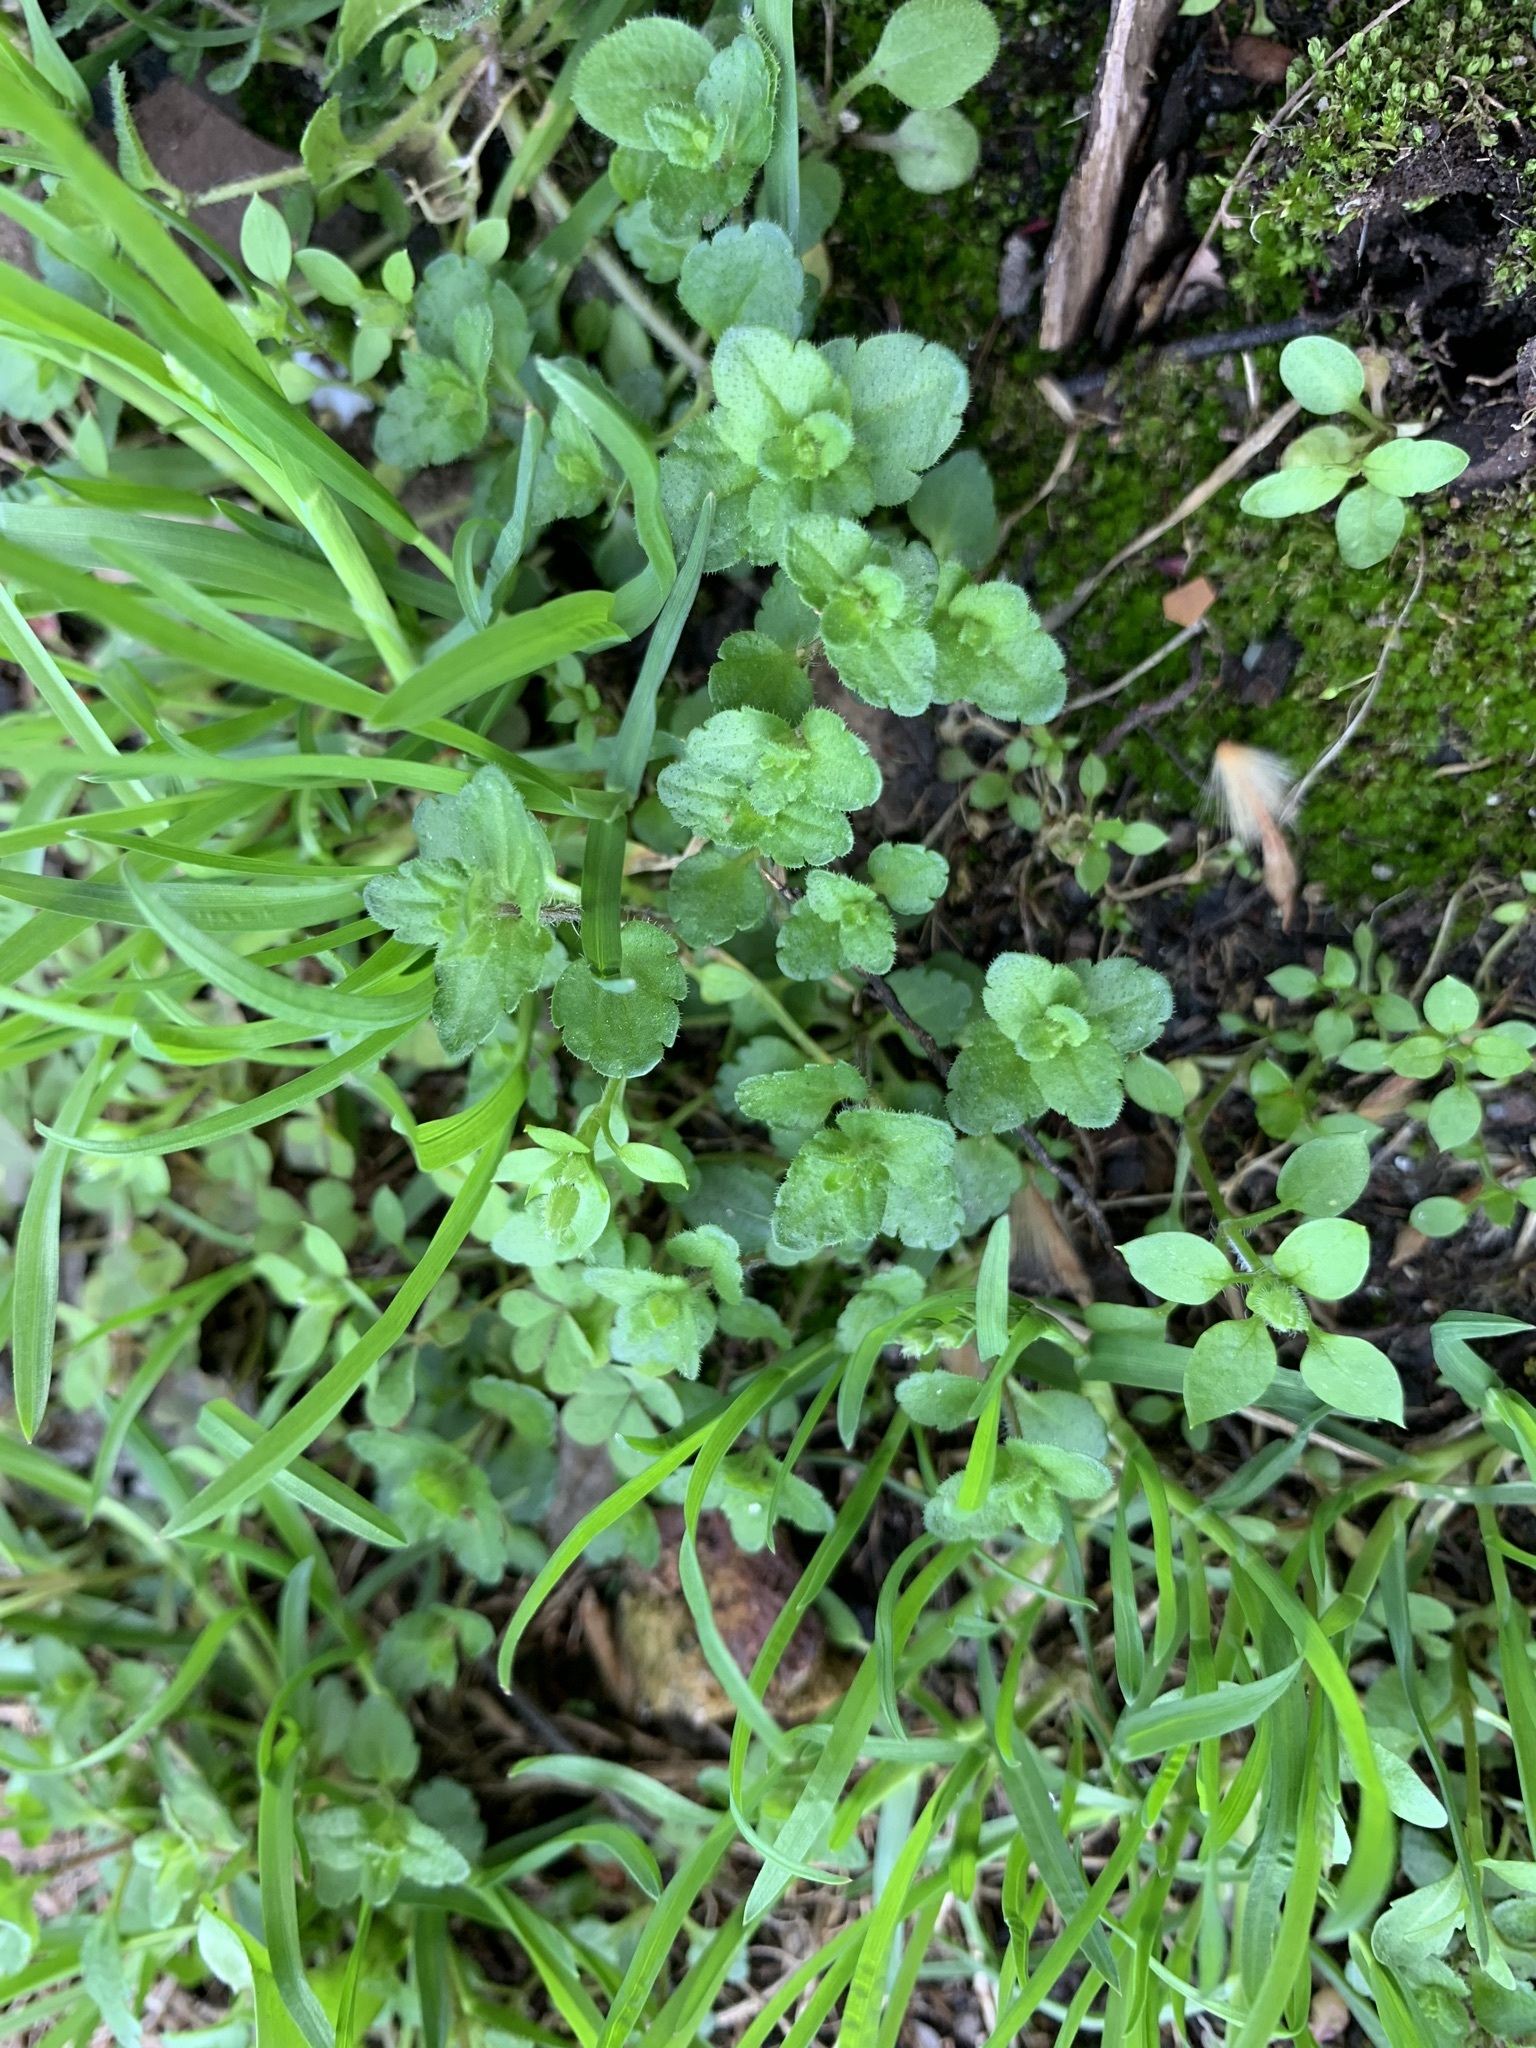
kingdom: Plantae
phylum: Tracheophyta
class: Magnoliopsida
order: Lamiales
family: Plantaginaceae
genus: Veronica
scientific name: Veronica arvensis
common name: Corn speedwell
